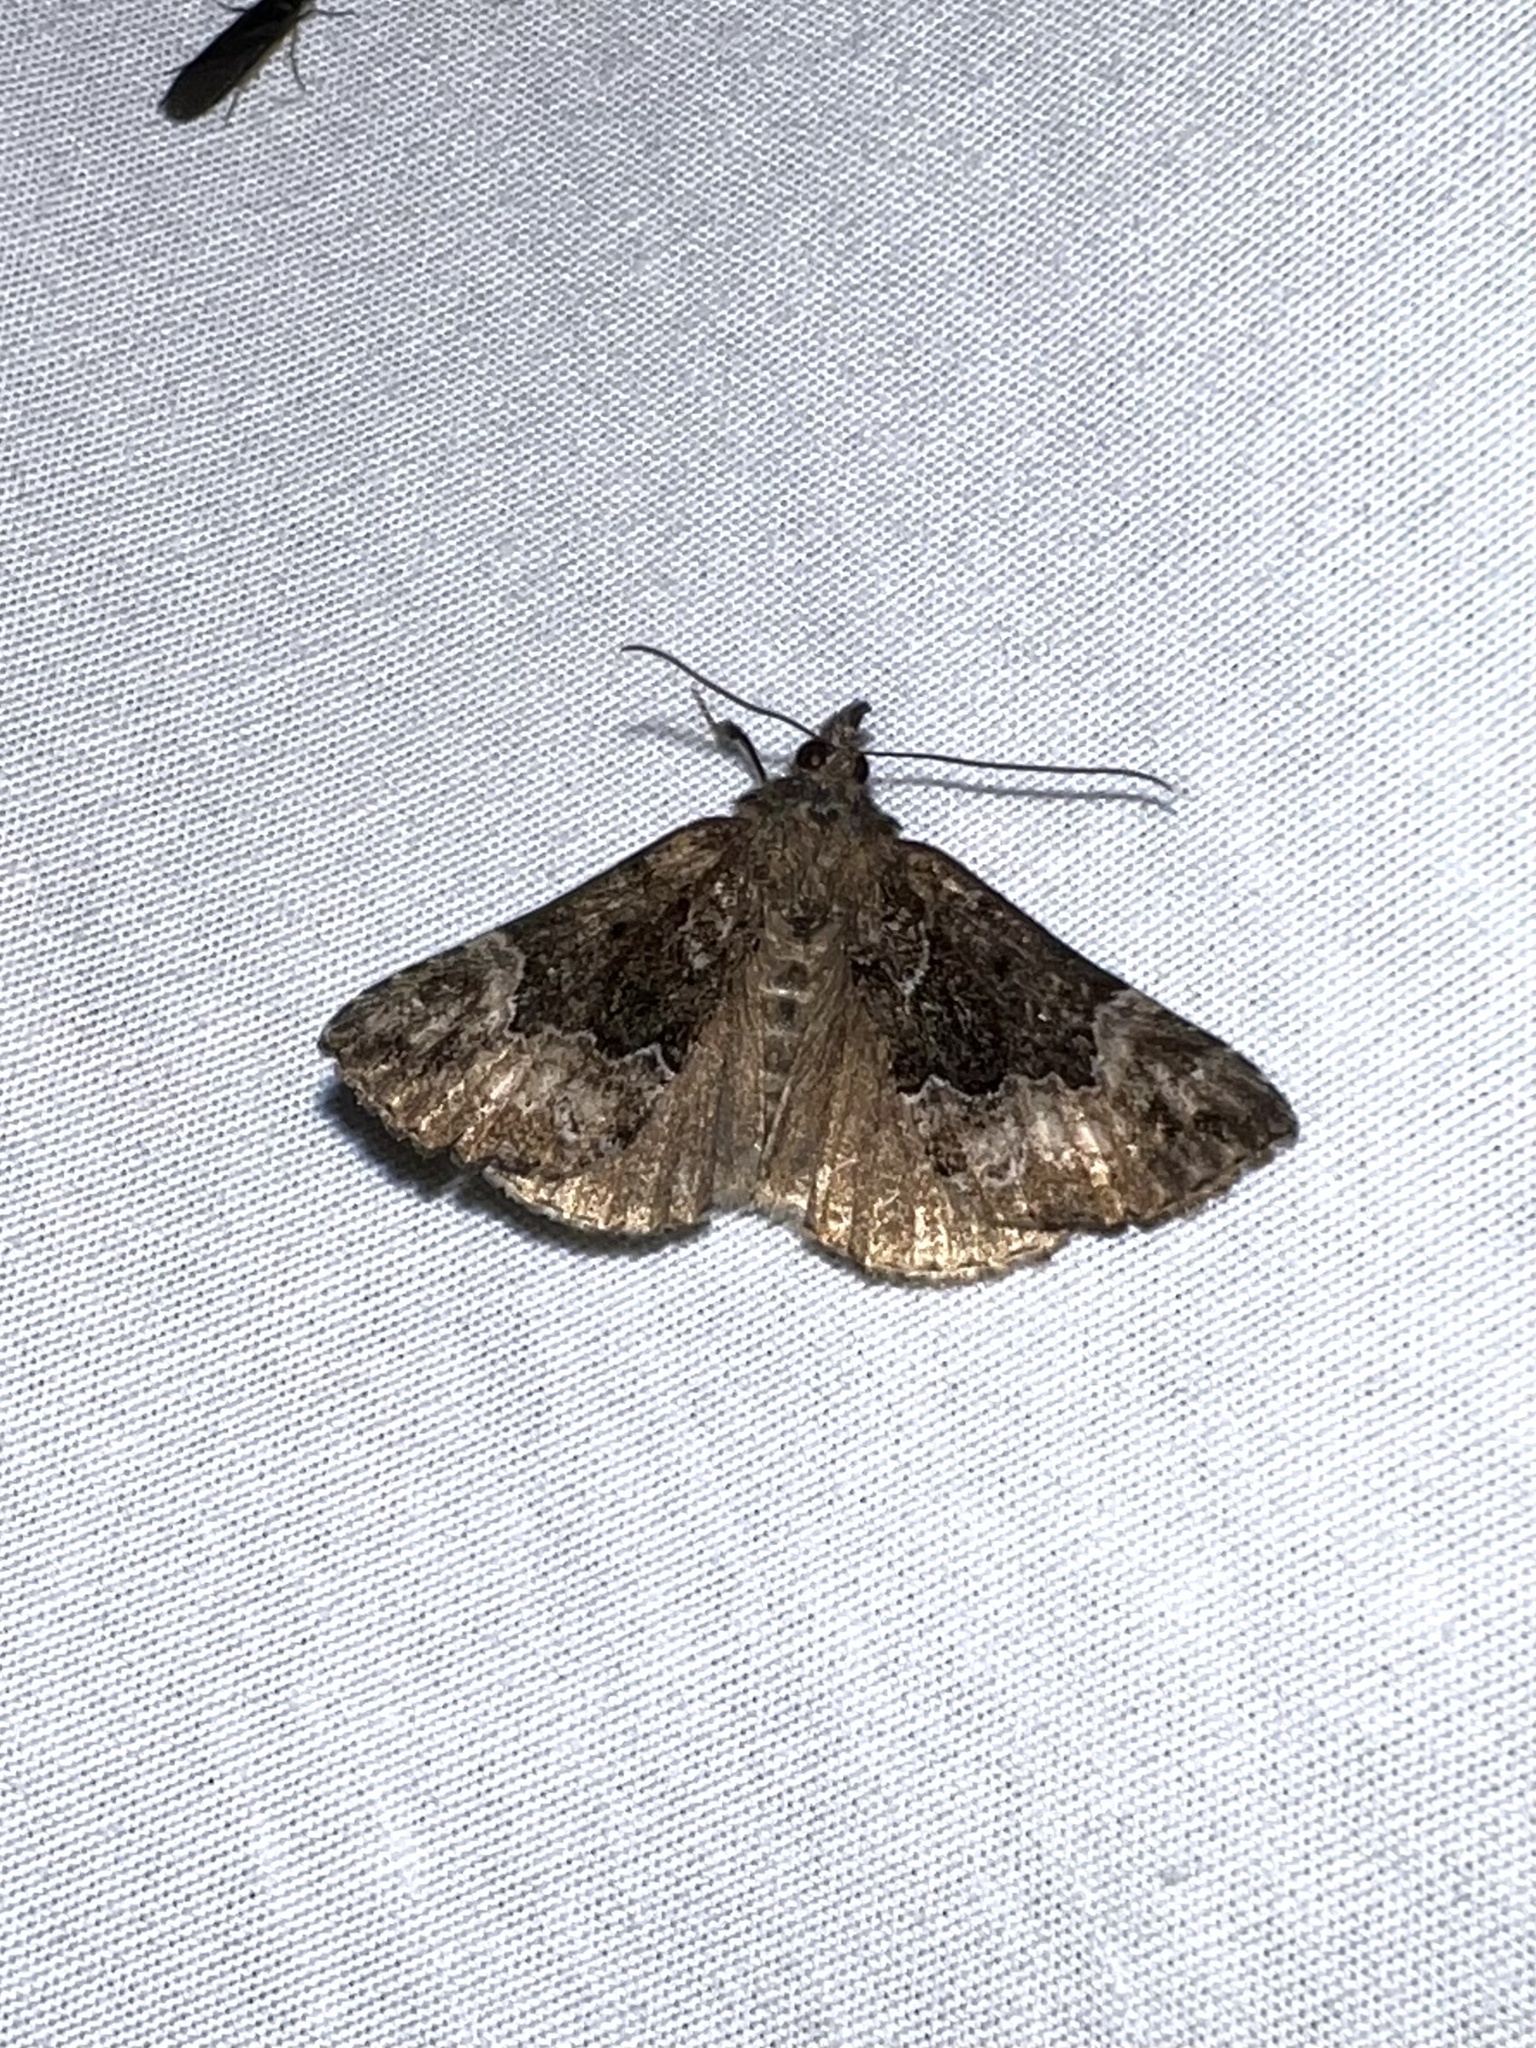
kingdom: Animalia
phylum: Arthropoda
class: Insecta
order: Lepidoptera
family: Erebidae
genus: Hypena
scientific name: Hypena palparia
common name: Mottled bomolocha moth
